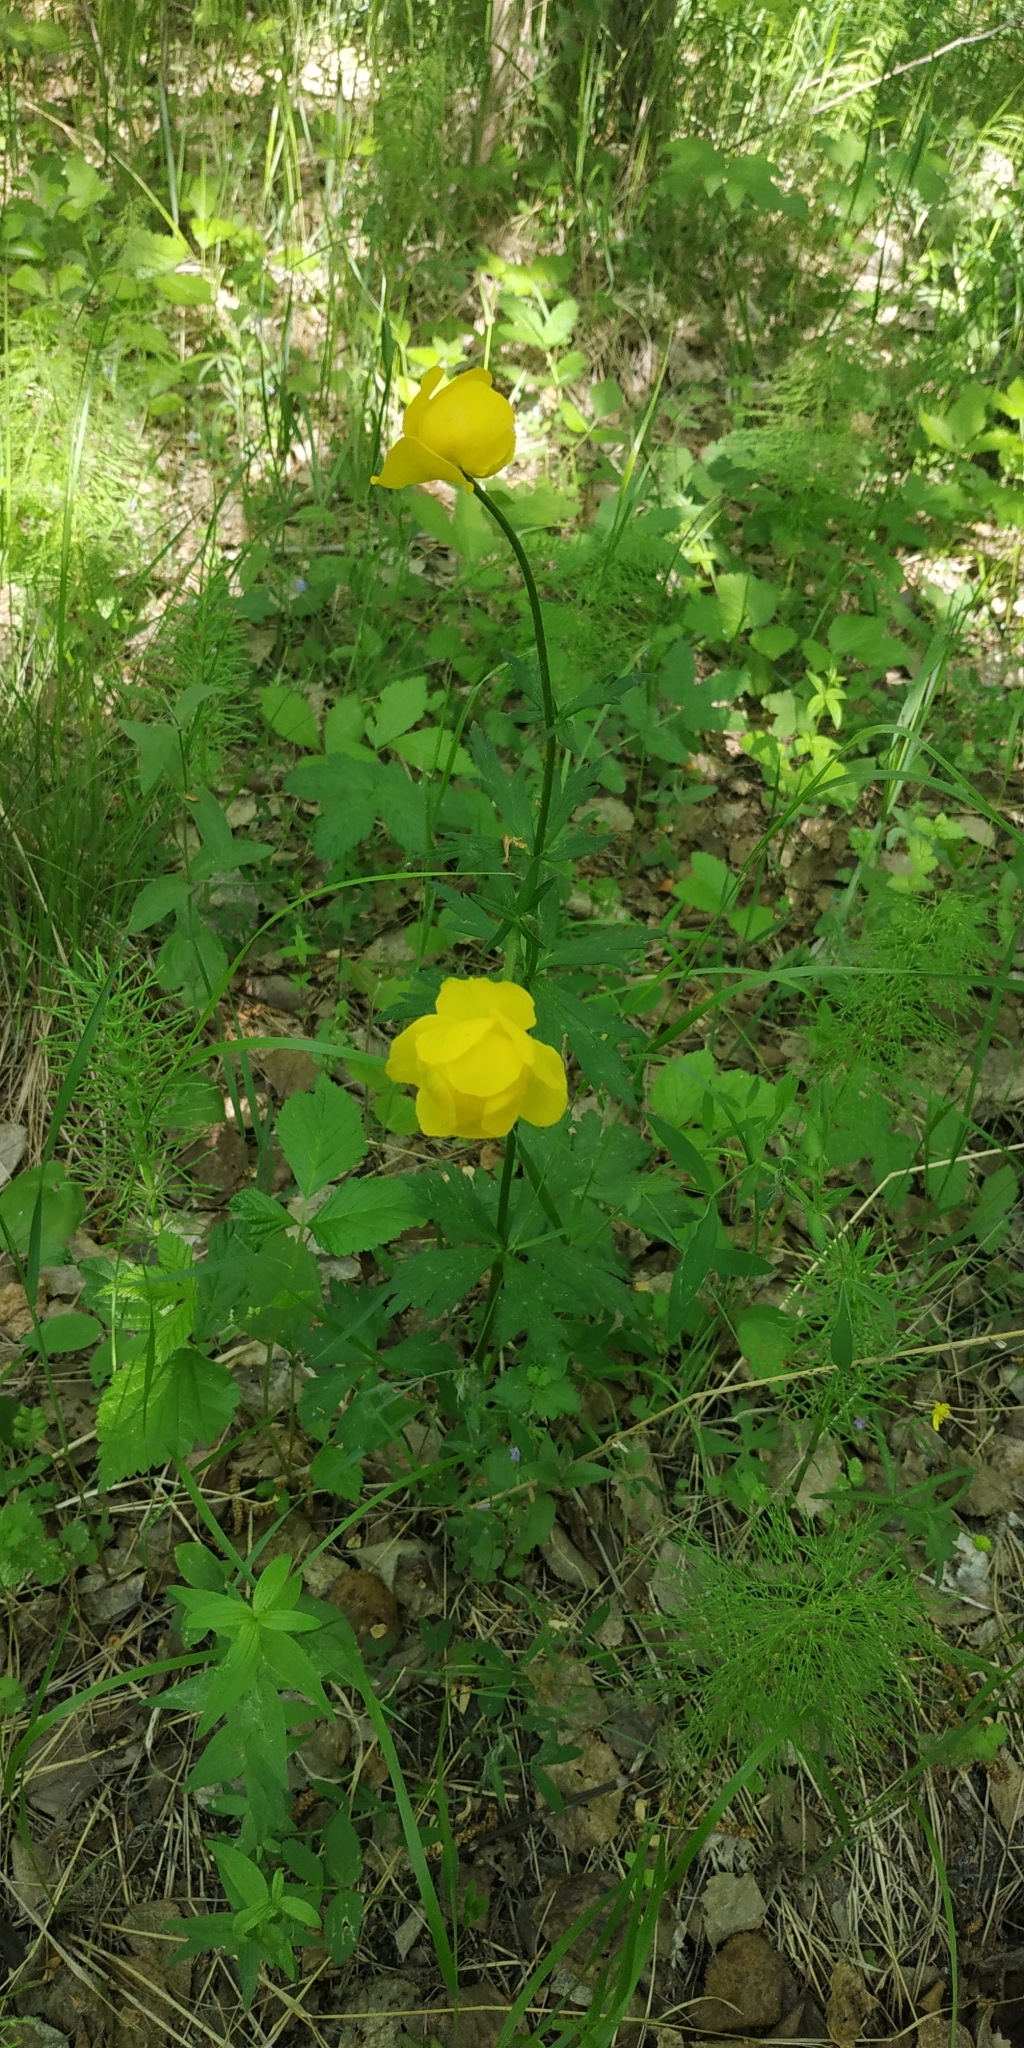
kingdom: Plantae
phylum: Tracheophyta
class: Magnoliopsida
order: Ranunculales
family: Ranunculaceae
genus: Trollius
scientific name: Trollius europaeus
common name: European globeflower
